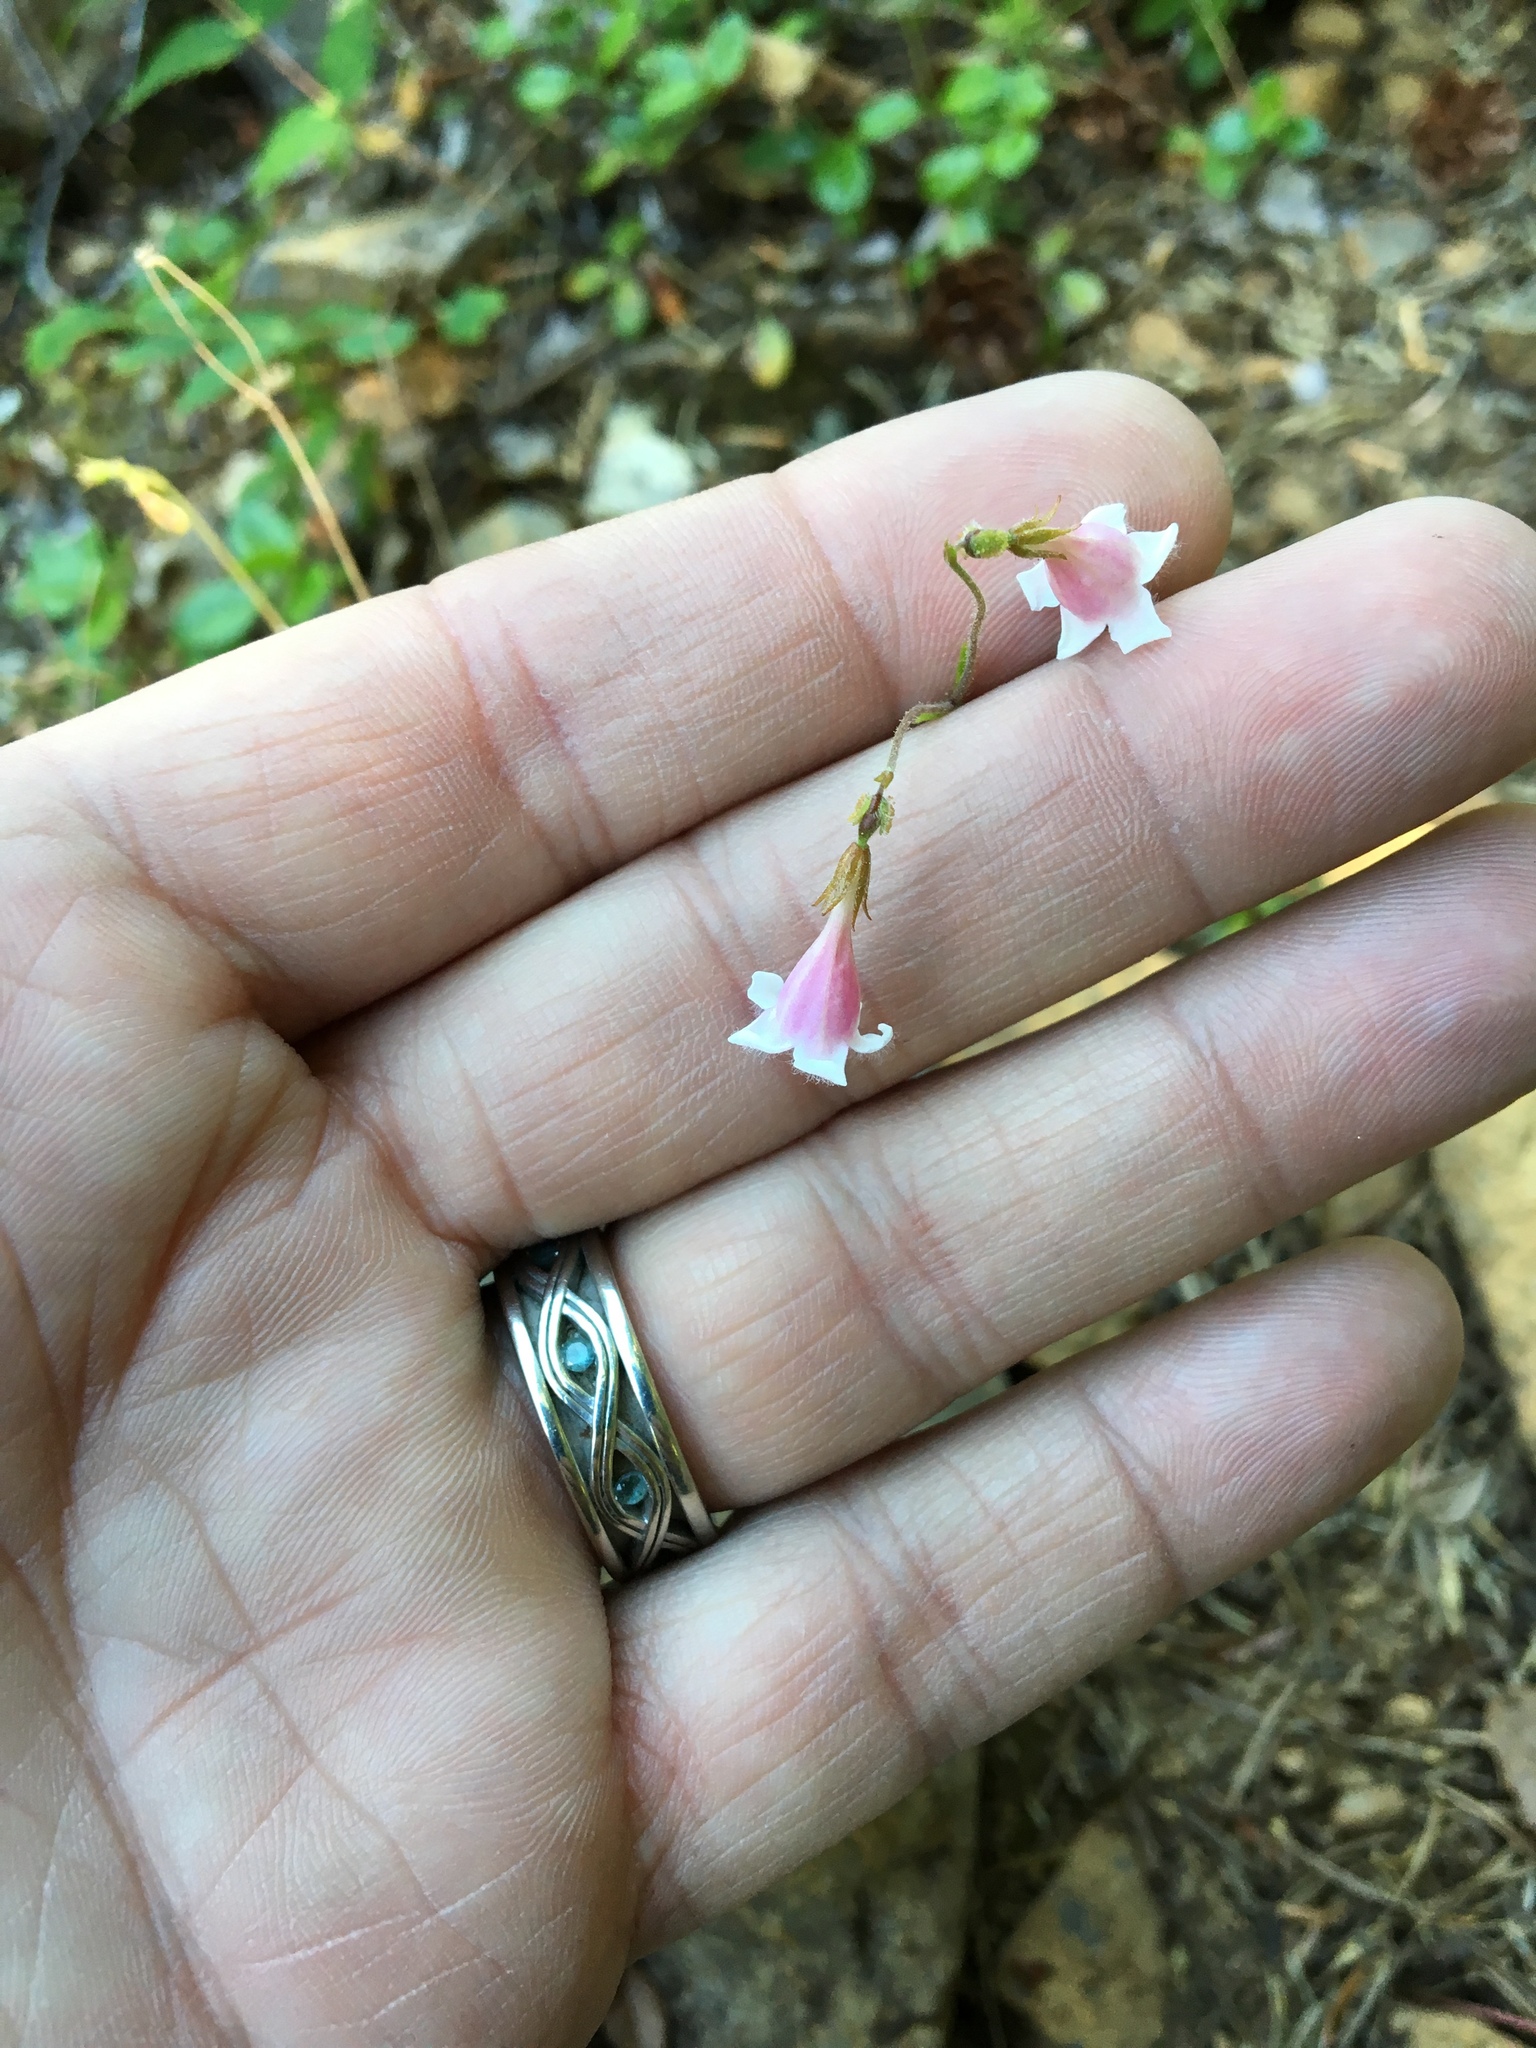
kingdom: Plantae
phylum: Tracheophyta
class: Magnoliopsida
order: Dipsacales
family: Caprifoliaceae
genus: Linnaea
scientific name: Linnaea borealis
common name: Twinflower
